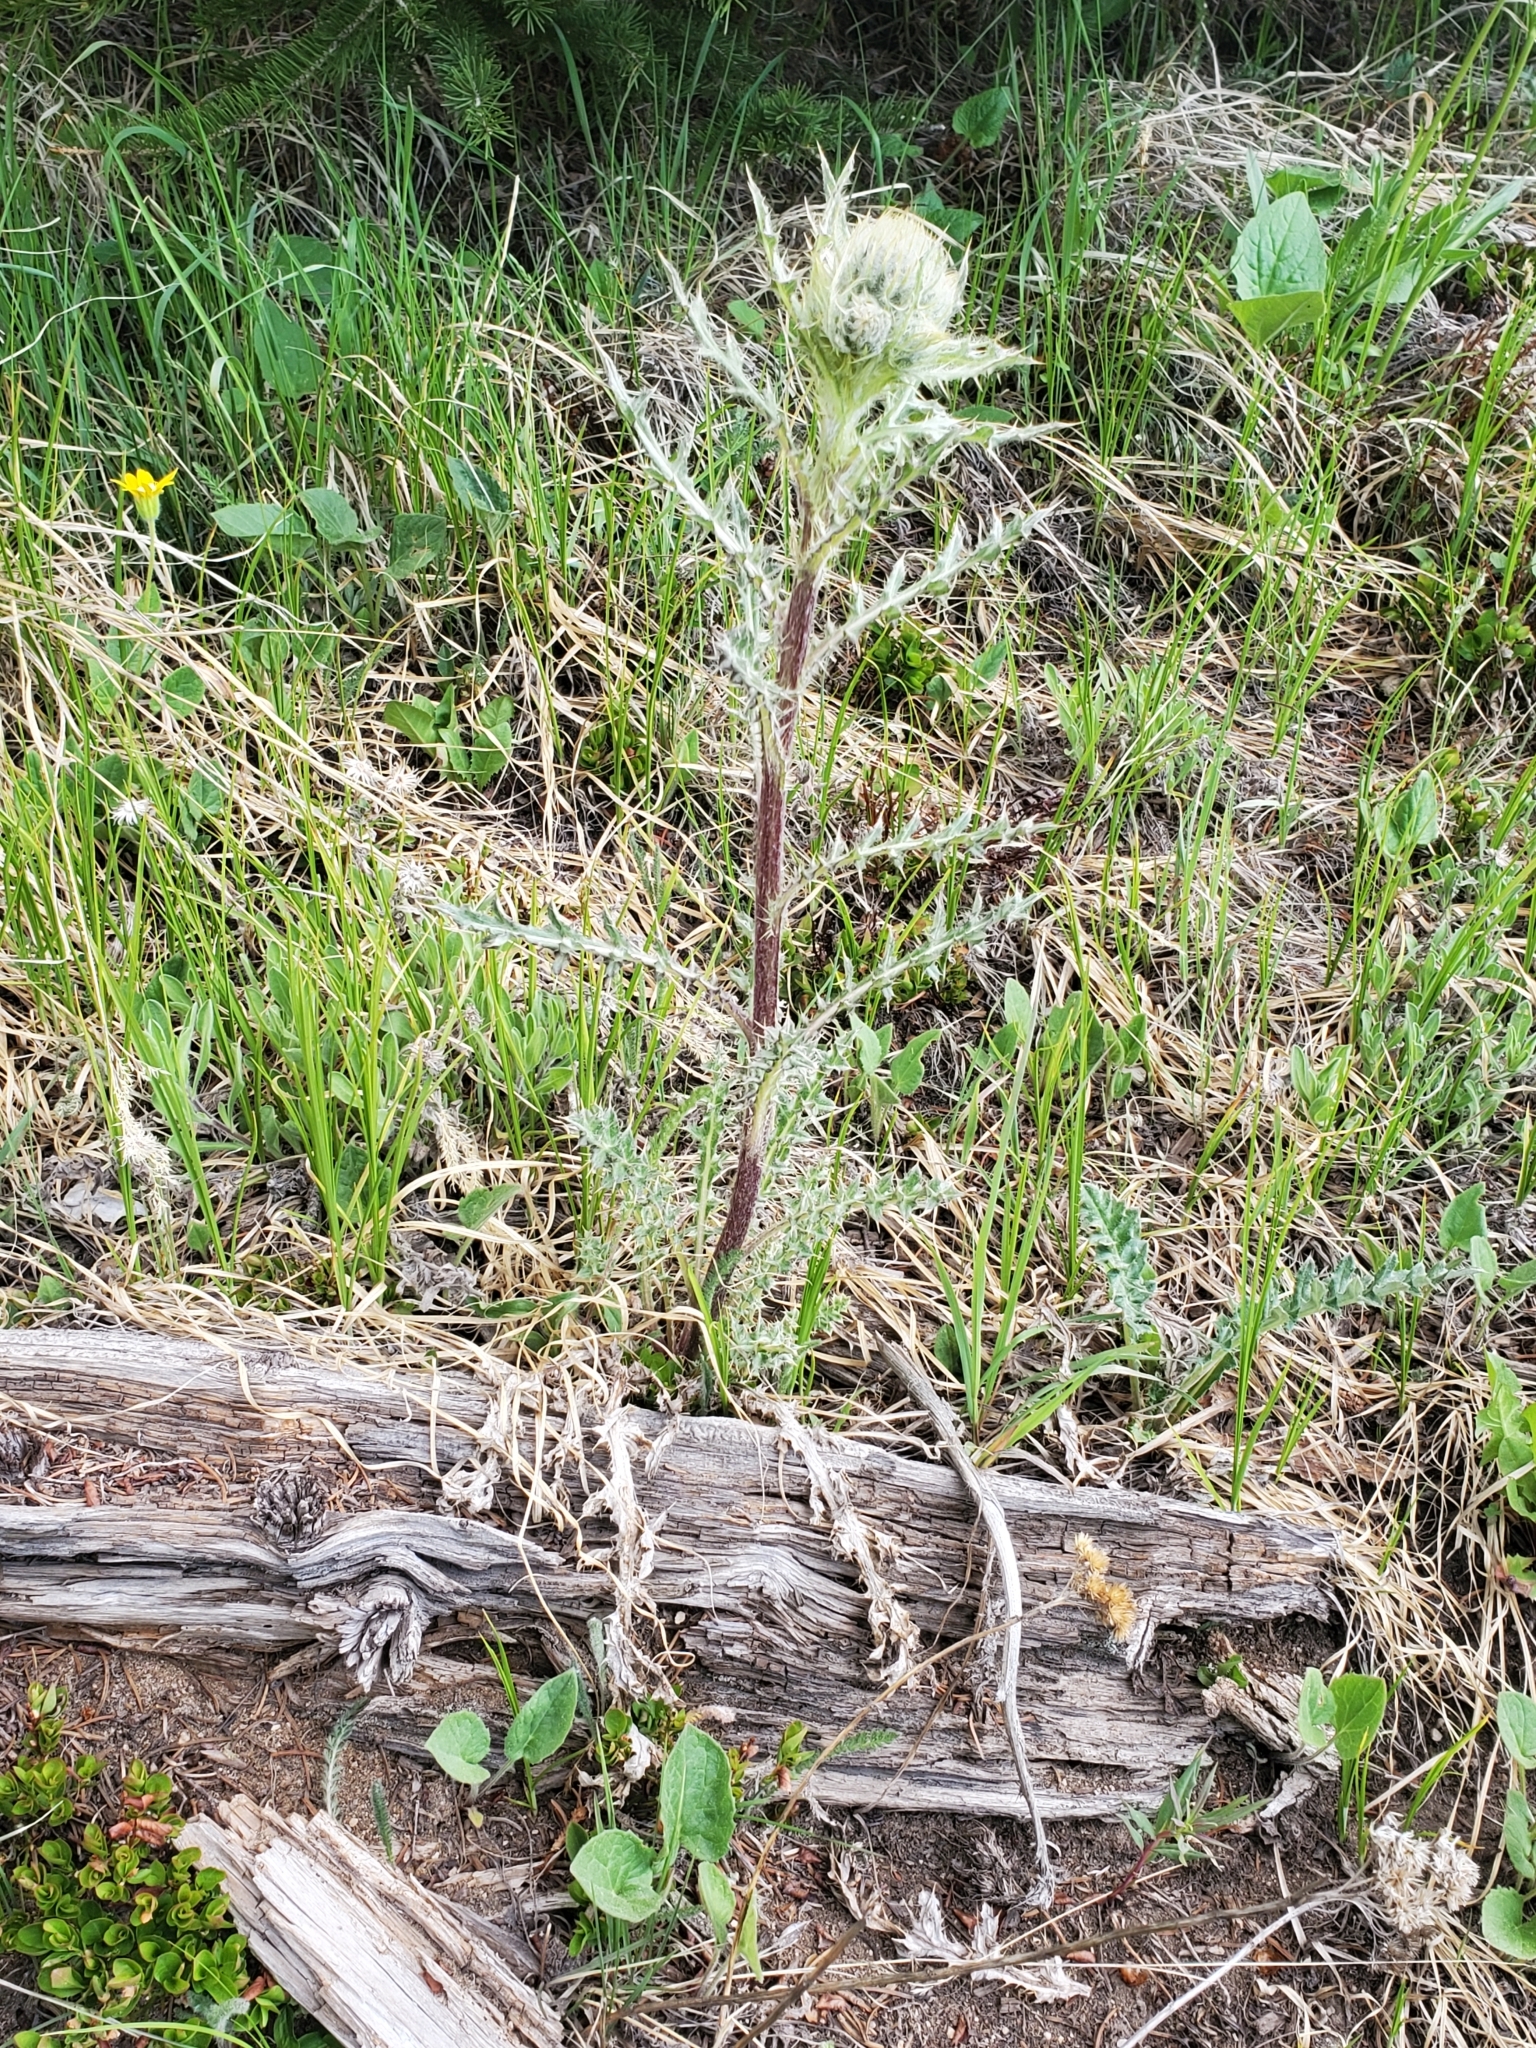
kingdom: Plantae
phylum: Tracheophyta
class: Magnoliopsida
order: Asterales
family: Asteraceae
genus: Cirsium
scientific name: Cirsium griseum
